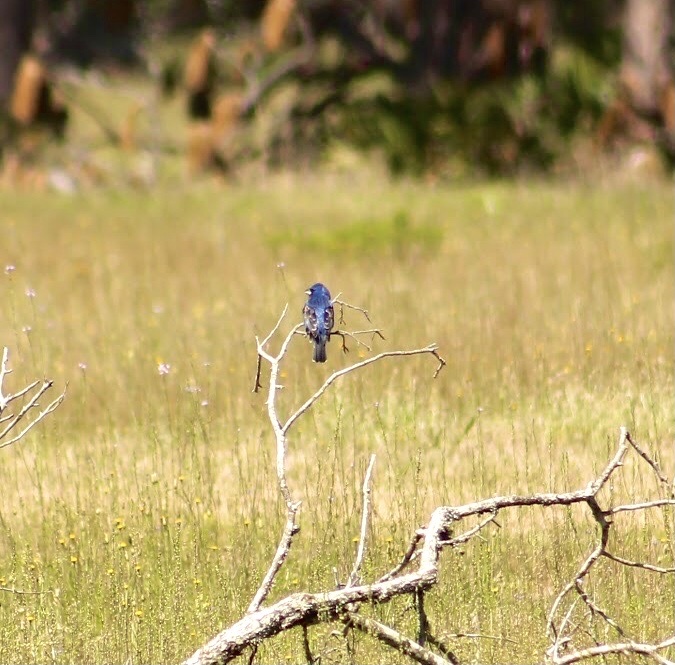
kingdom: Animalia
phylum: Chordata
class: Aves
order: Passeriformes
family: Cardinalidae
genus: Passerina
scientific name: Passerina caerulea
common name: Blue grosbeak
